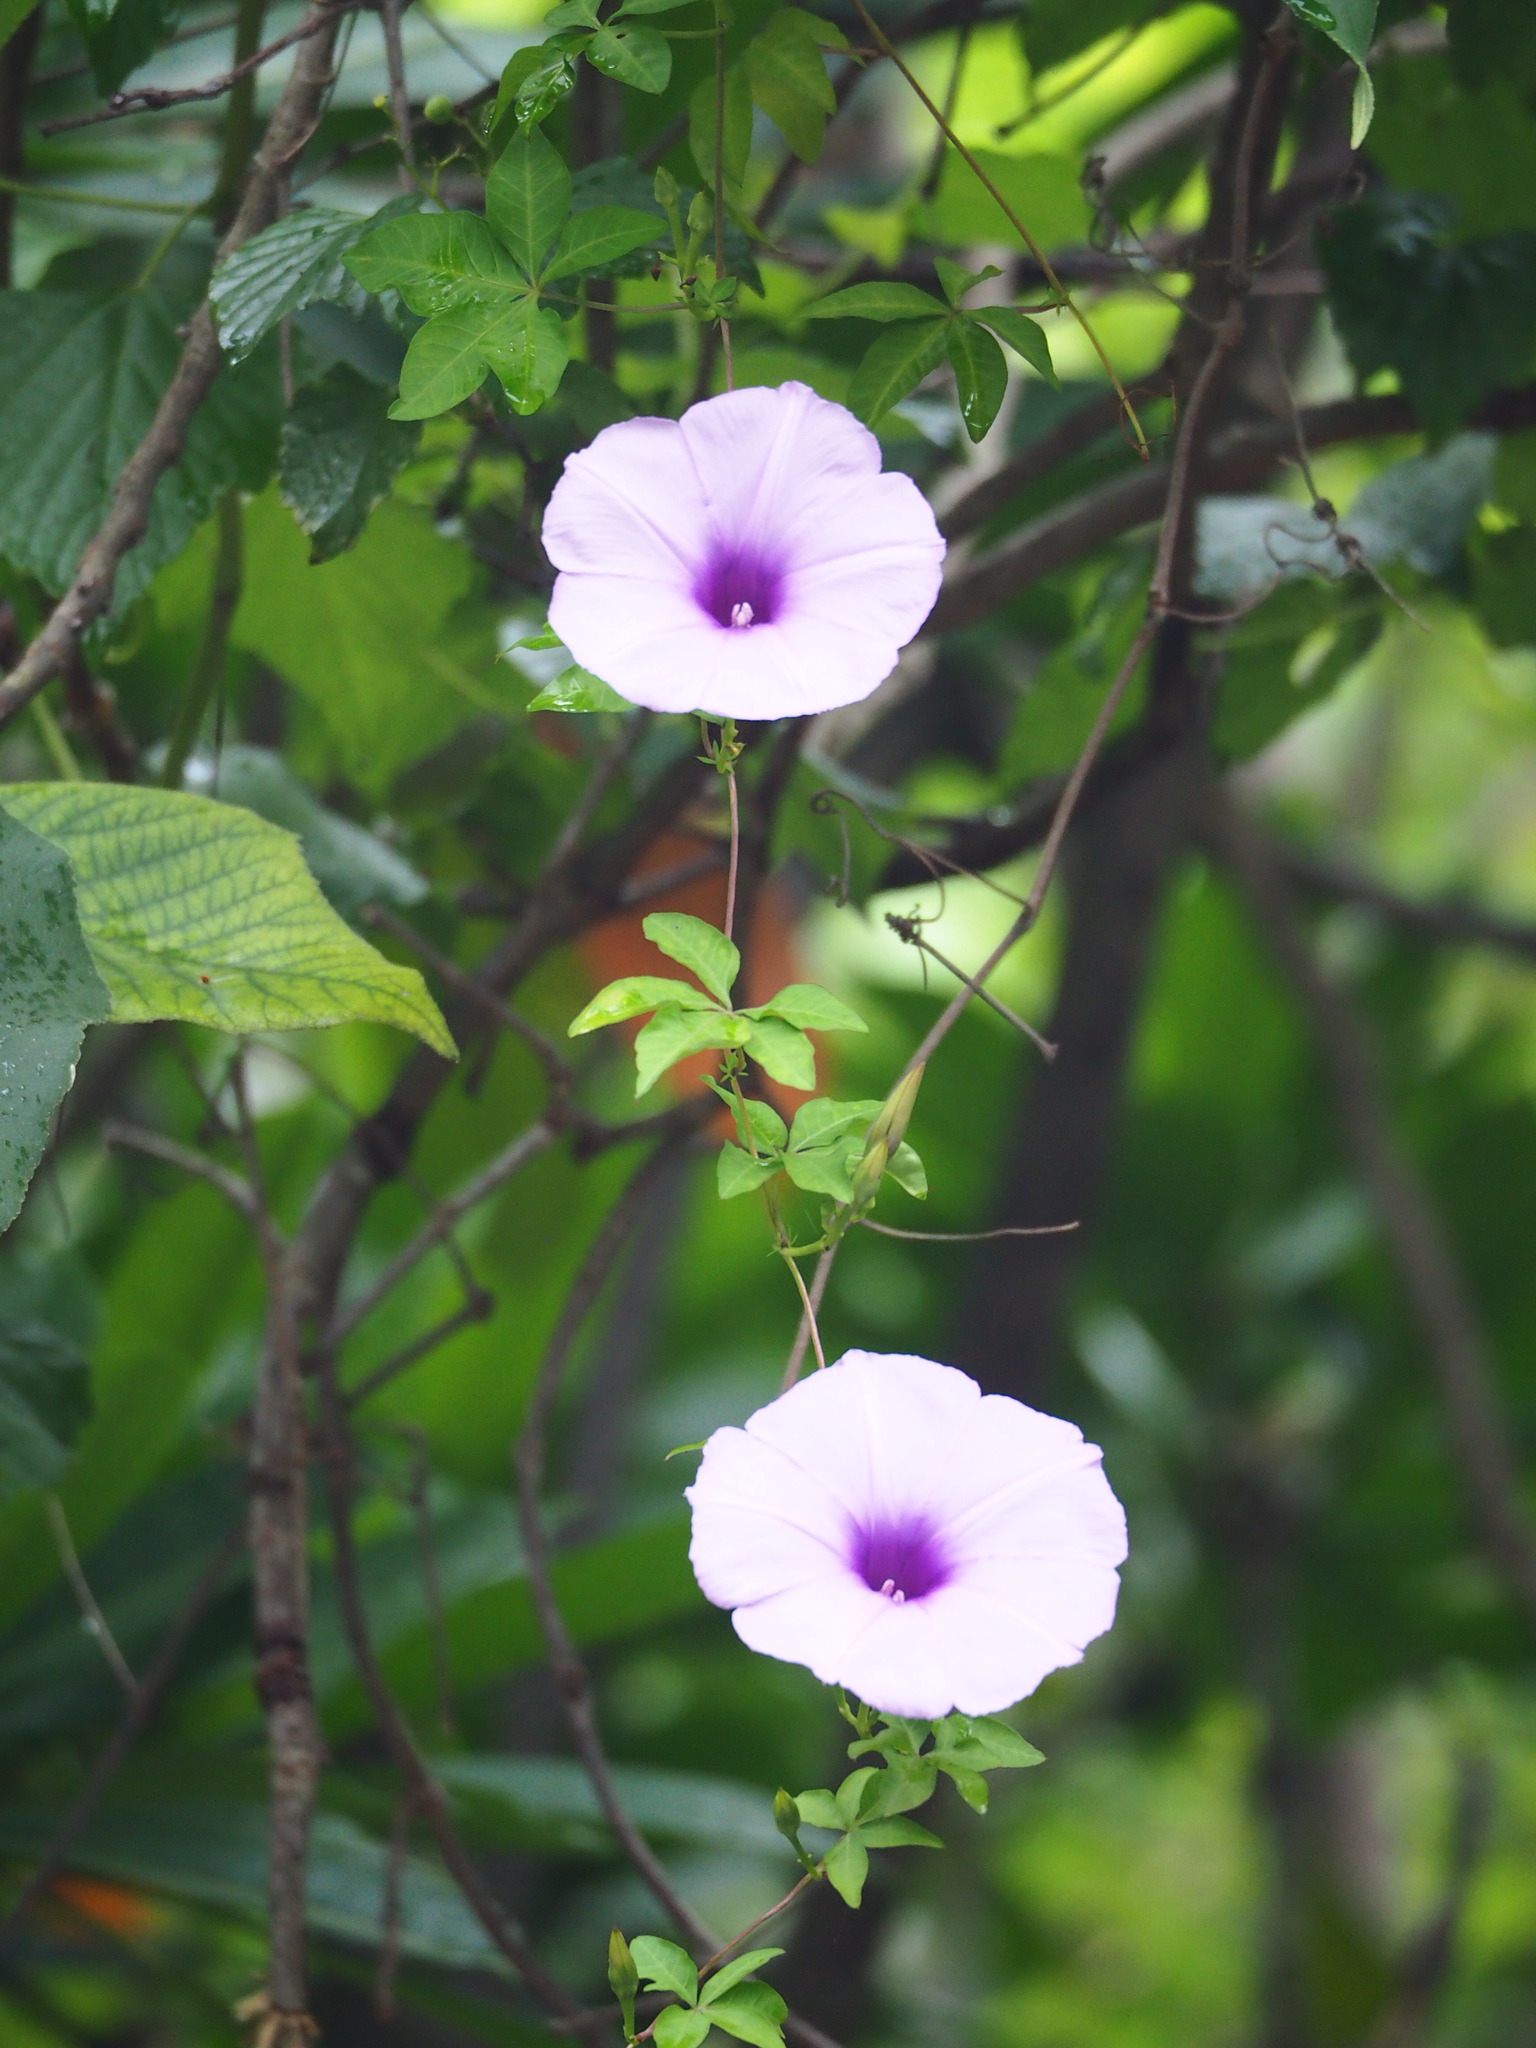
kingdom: Plantae
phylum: Tracheophyta
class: Magnoliopsida
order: Solanales
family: Convolvulaceae
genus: Ipomoea
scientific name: Ipomoea cairica
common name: Mile a minute vine
